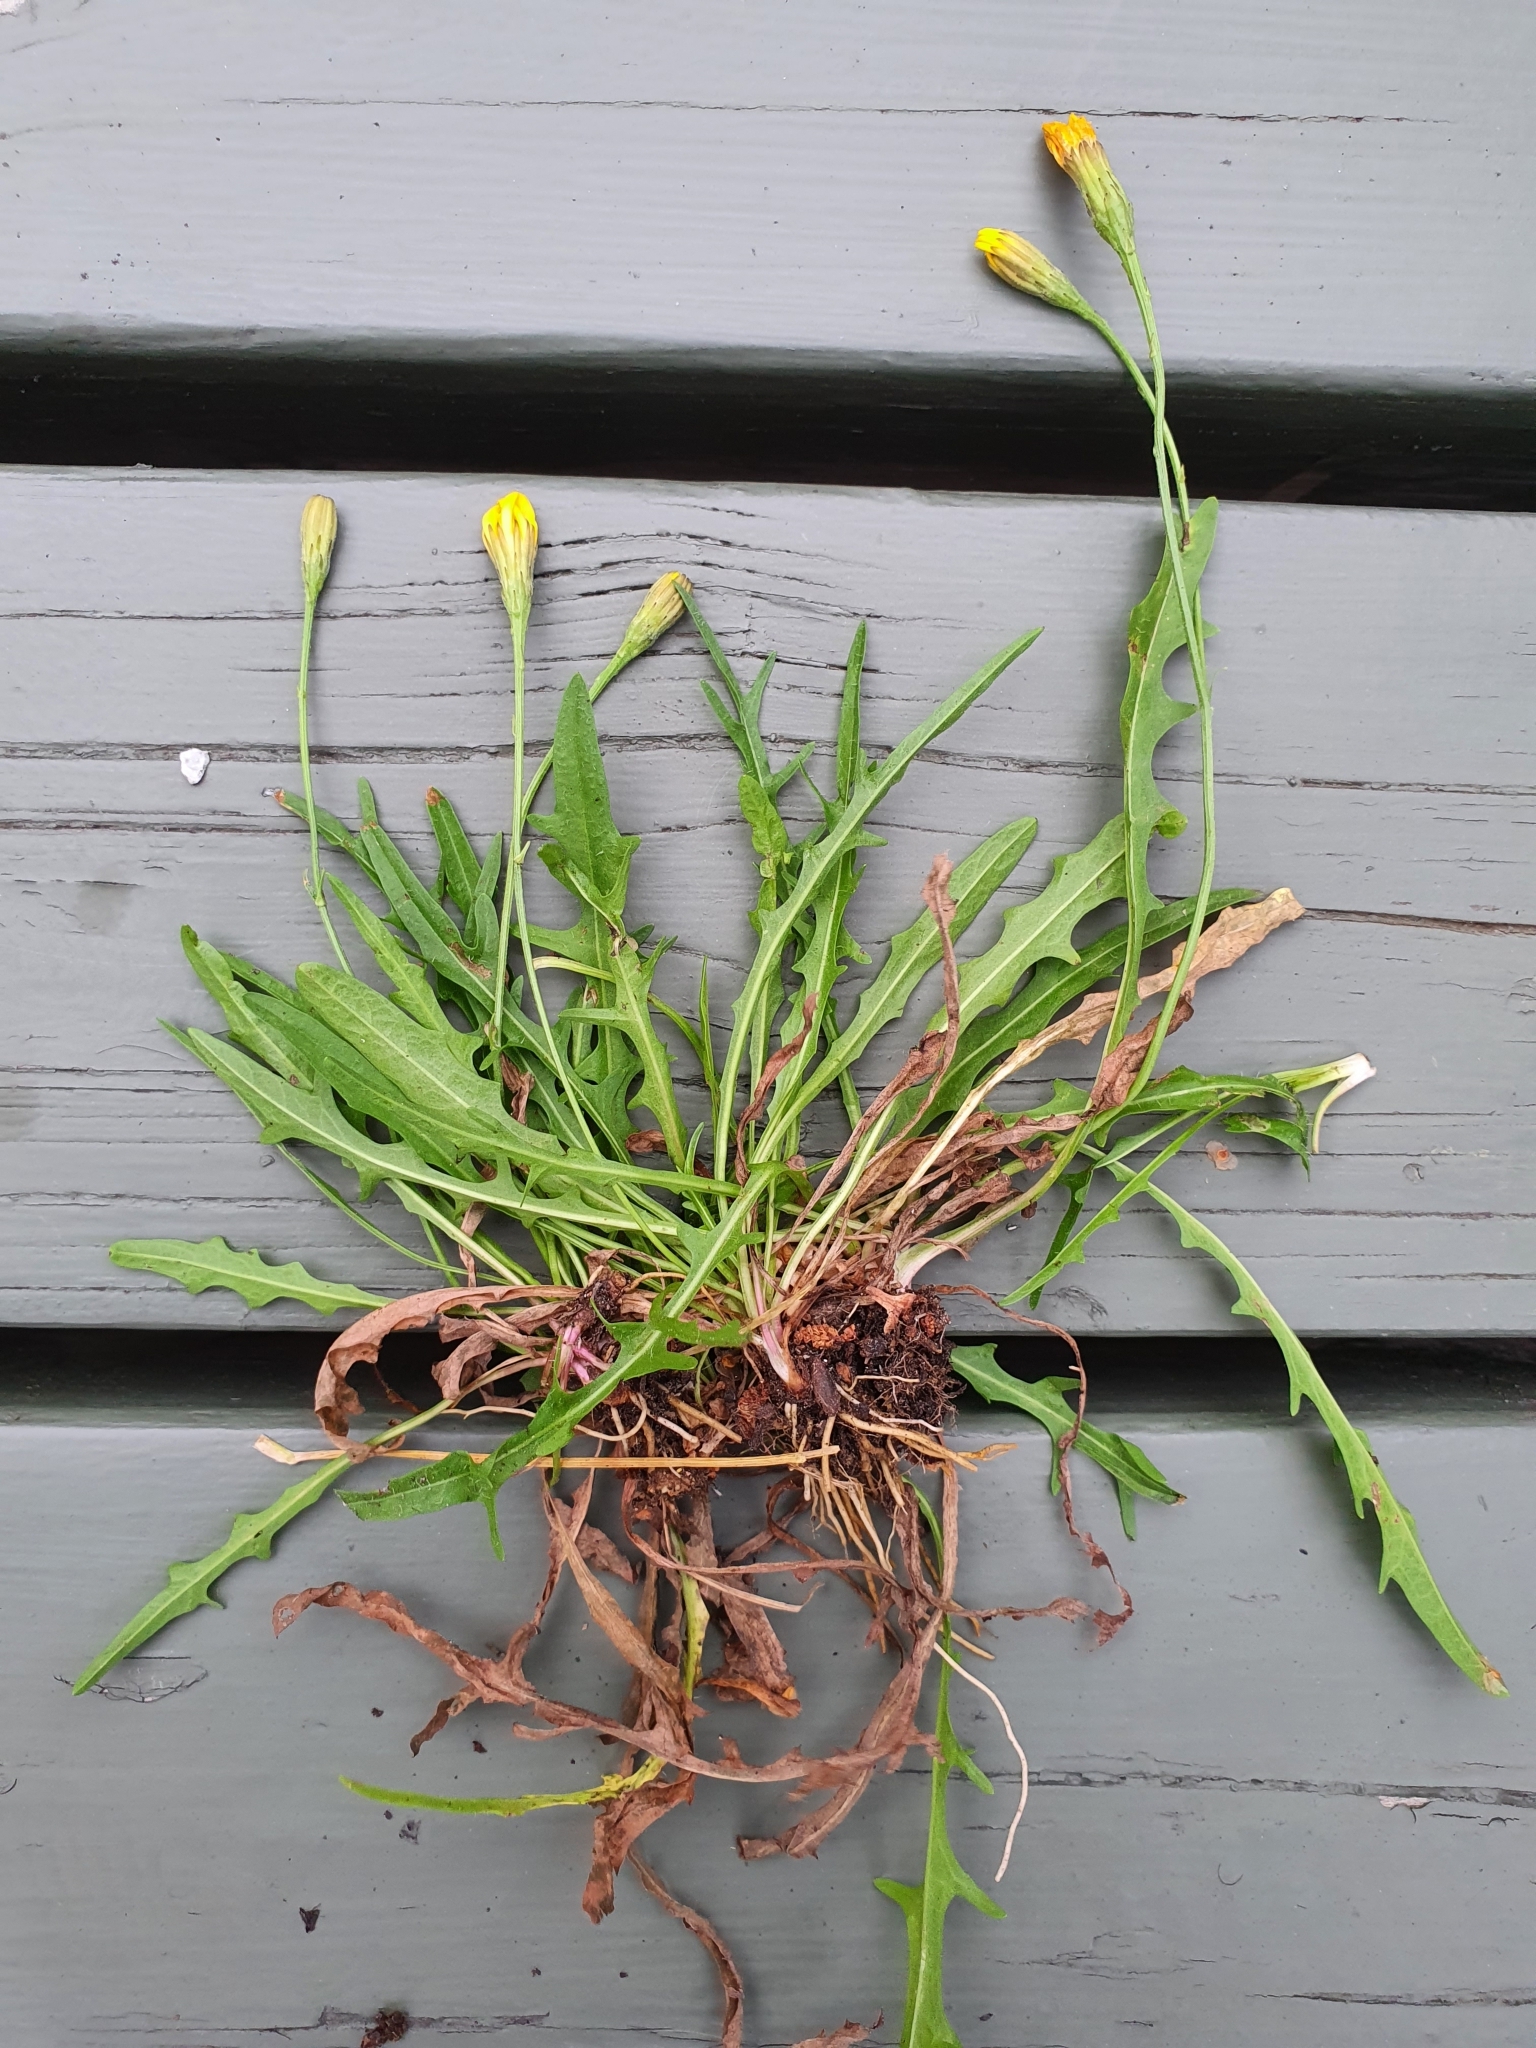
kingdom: Plantae
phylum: Tracheophyta
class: Magnoliopsida
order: Asterales
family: Asteraceae
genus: Scorzoneroides
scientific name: Scorzoneroides autumnalis
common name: Autumn hawkbit
